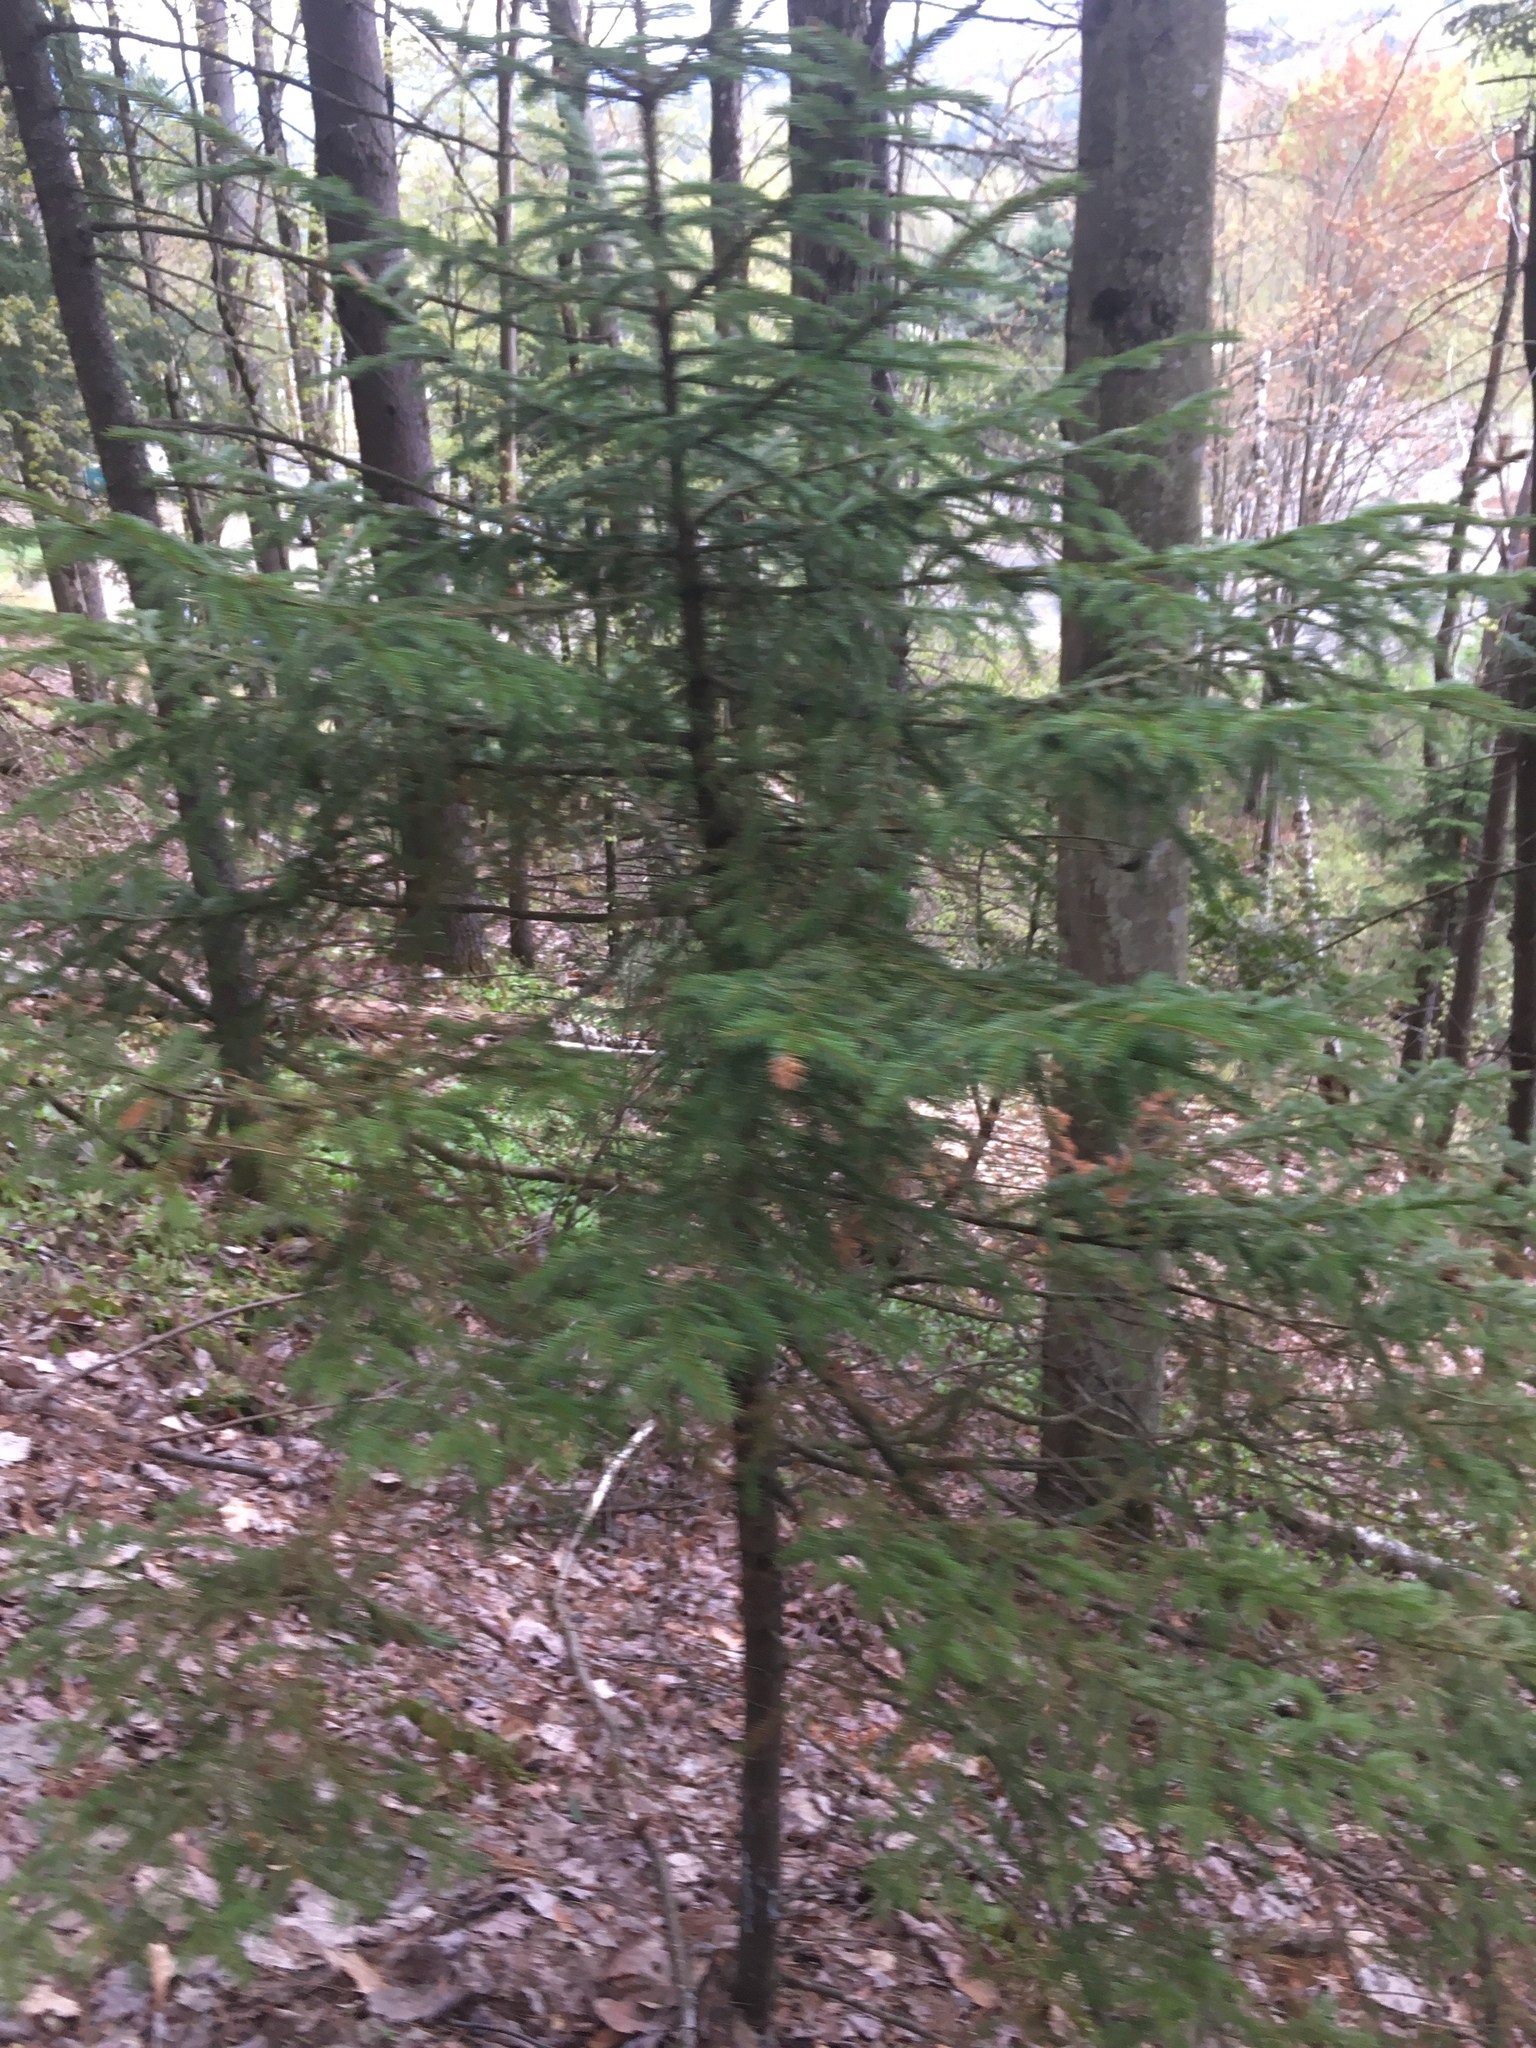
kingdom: Plantae
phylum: Tracheophyta
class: Pinopsida
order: Pinales
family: Pinaceae
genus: Picea
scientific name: Picea rubens
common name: Red spruce
